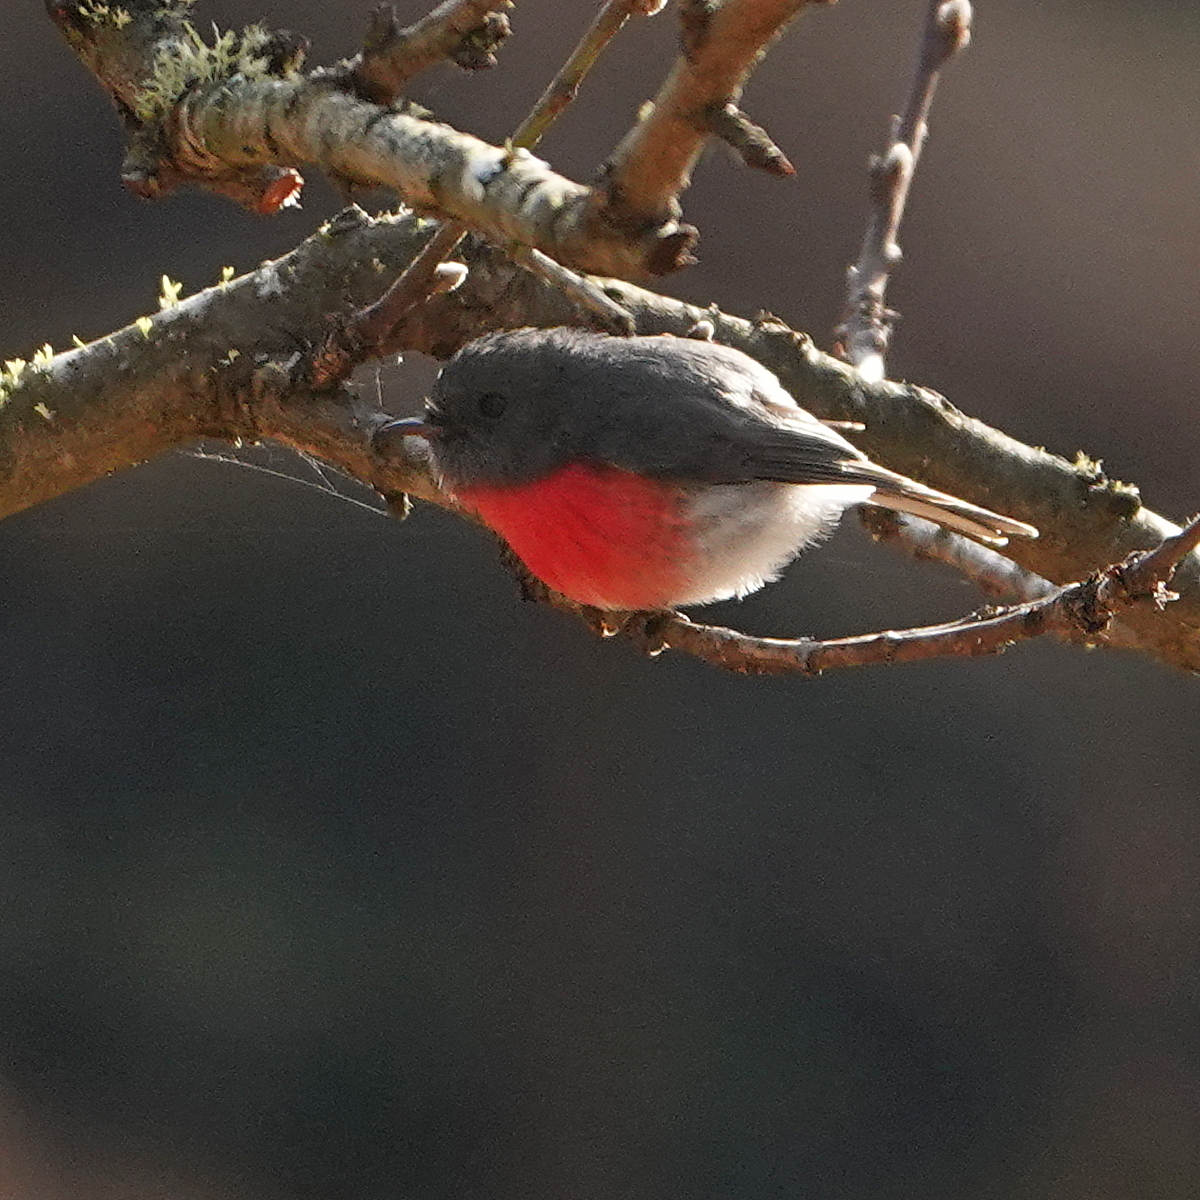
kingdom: Animalia
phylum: Chordata
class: Aves
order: Passeriformes
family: Petroicidae
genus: Petroica
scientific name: Petroica rosea
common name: Rose robin
